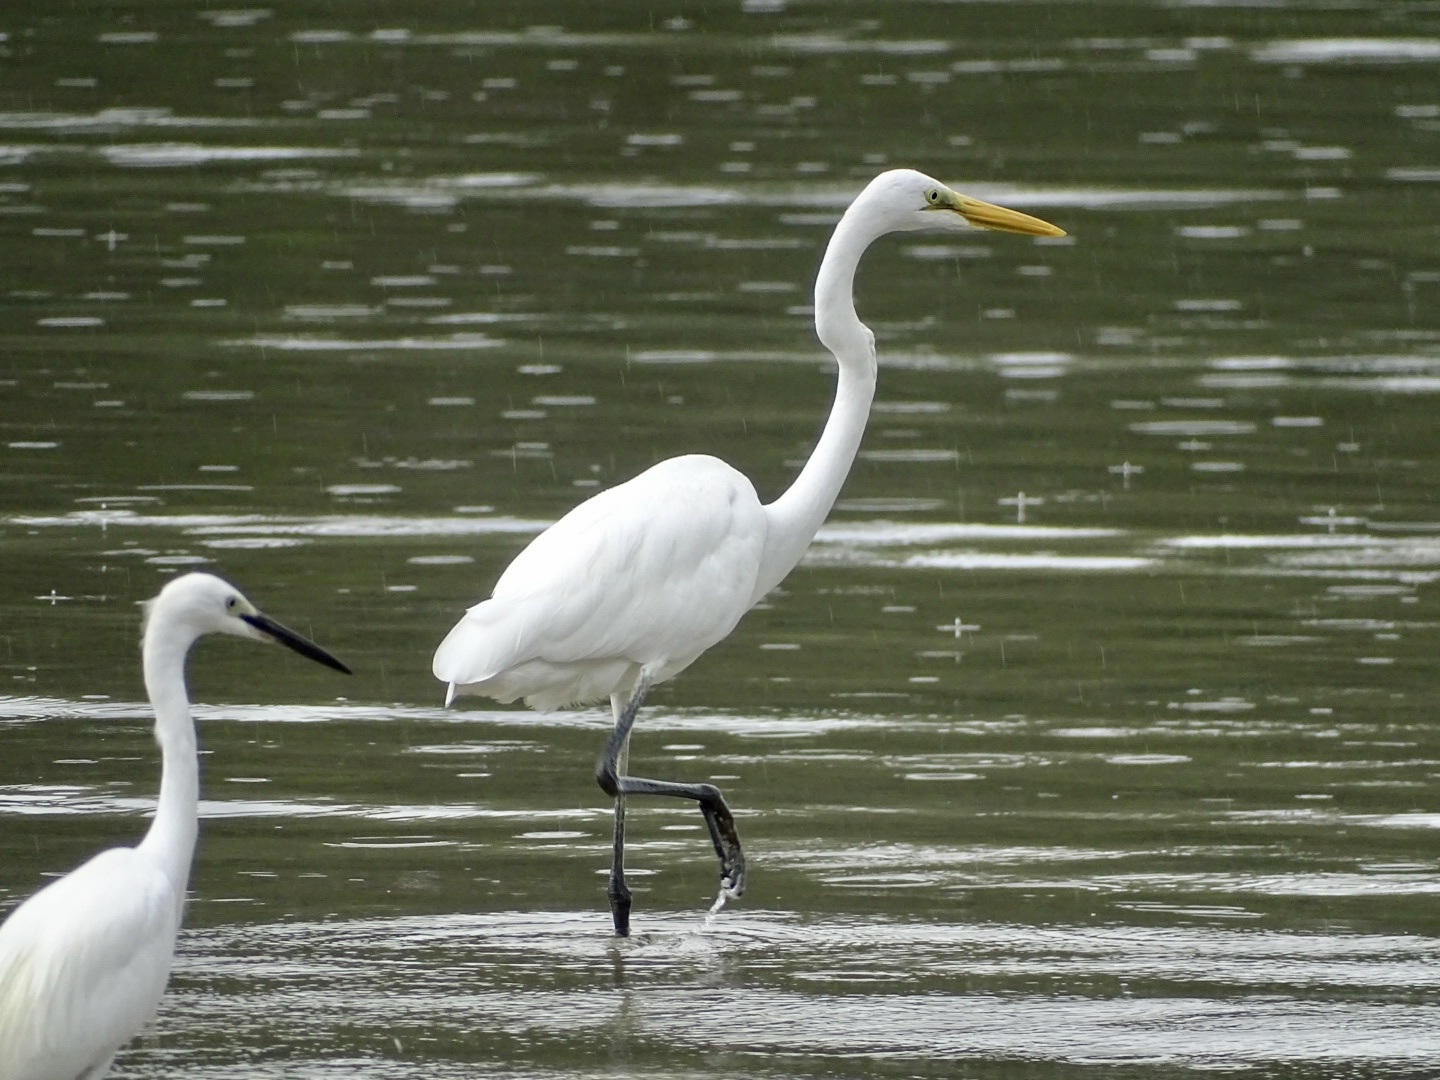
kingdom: Animalia
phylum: Chordata
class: Aves
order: Pelecaniformes
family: Ardeidae
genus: Ardea
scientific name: Ardea alba
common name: Great egret
